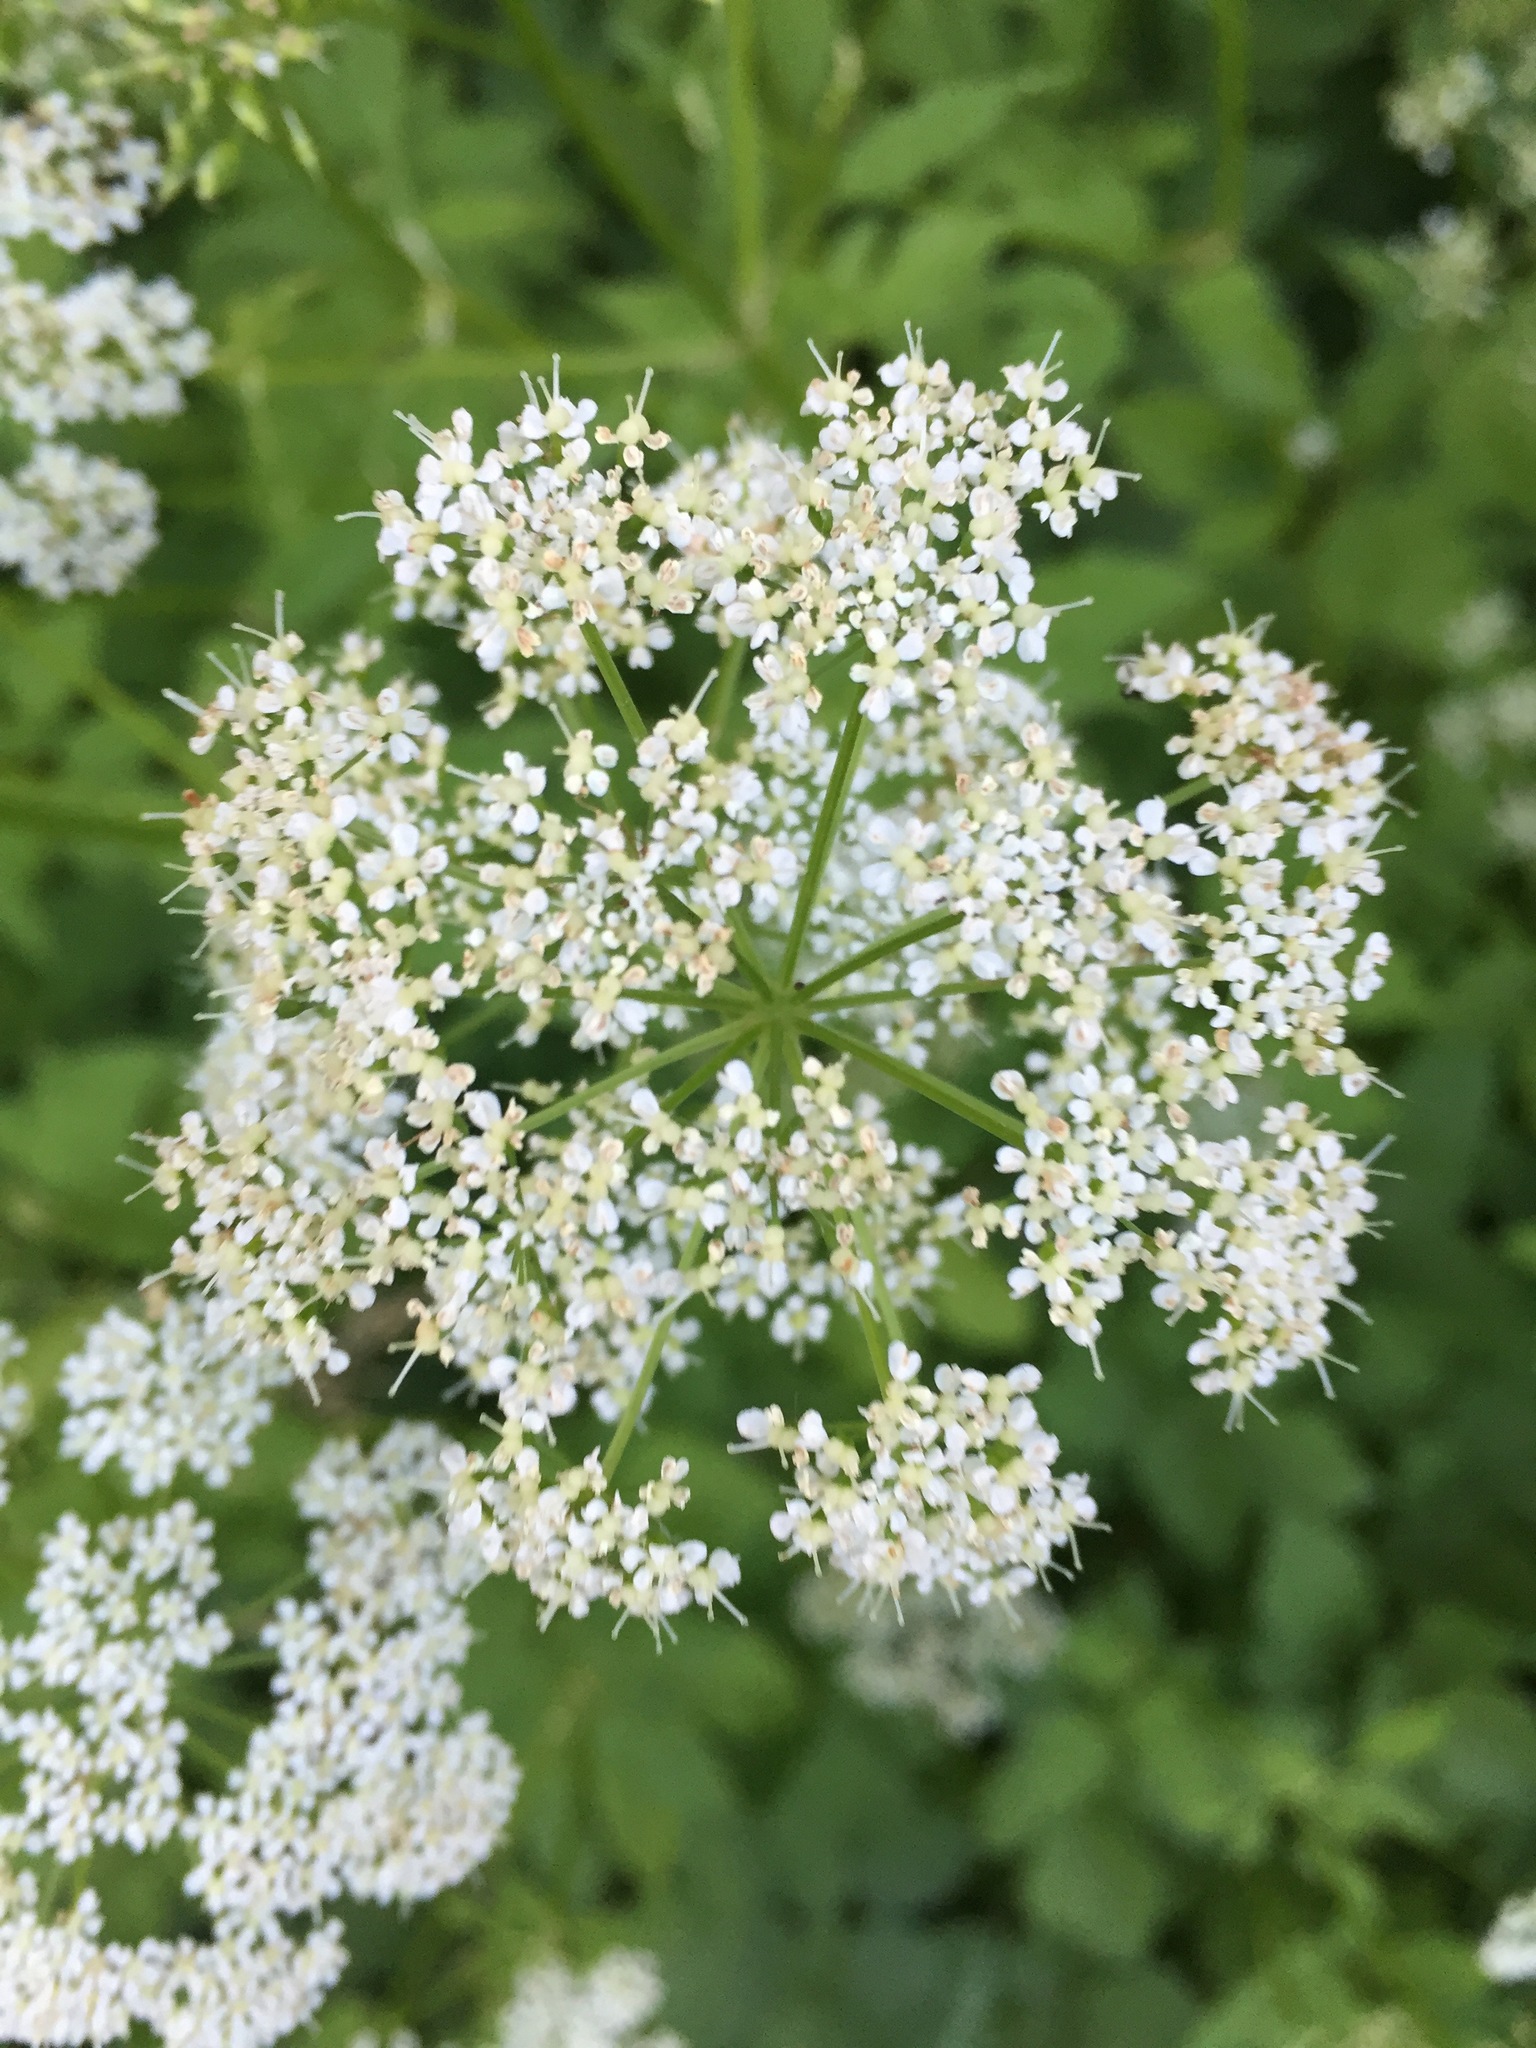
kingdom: Plantae
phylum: Tracheophyta
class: Magnoliopsida
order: Apiales
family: Apiaceae
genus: Aegopodium
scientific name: Aegopodium podagraria
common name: Ground-elder
